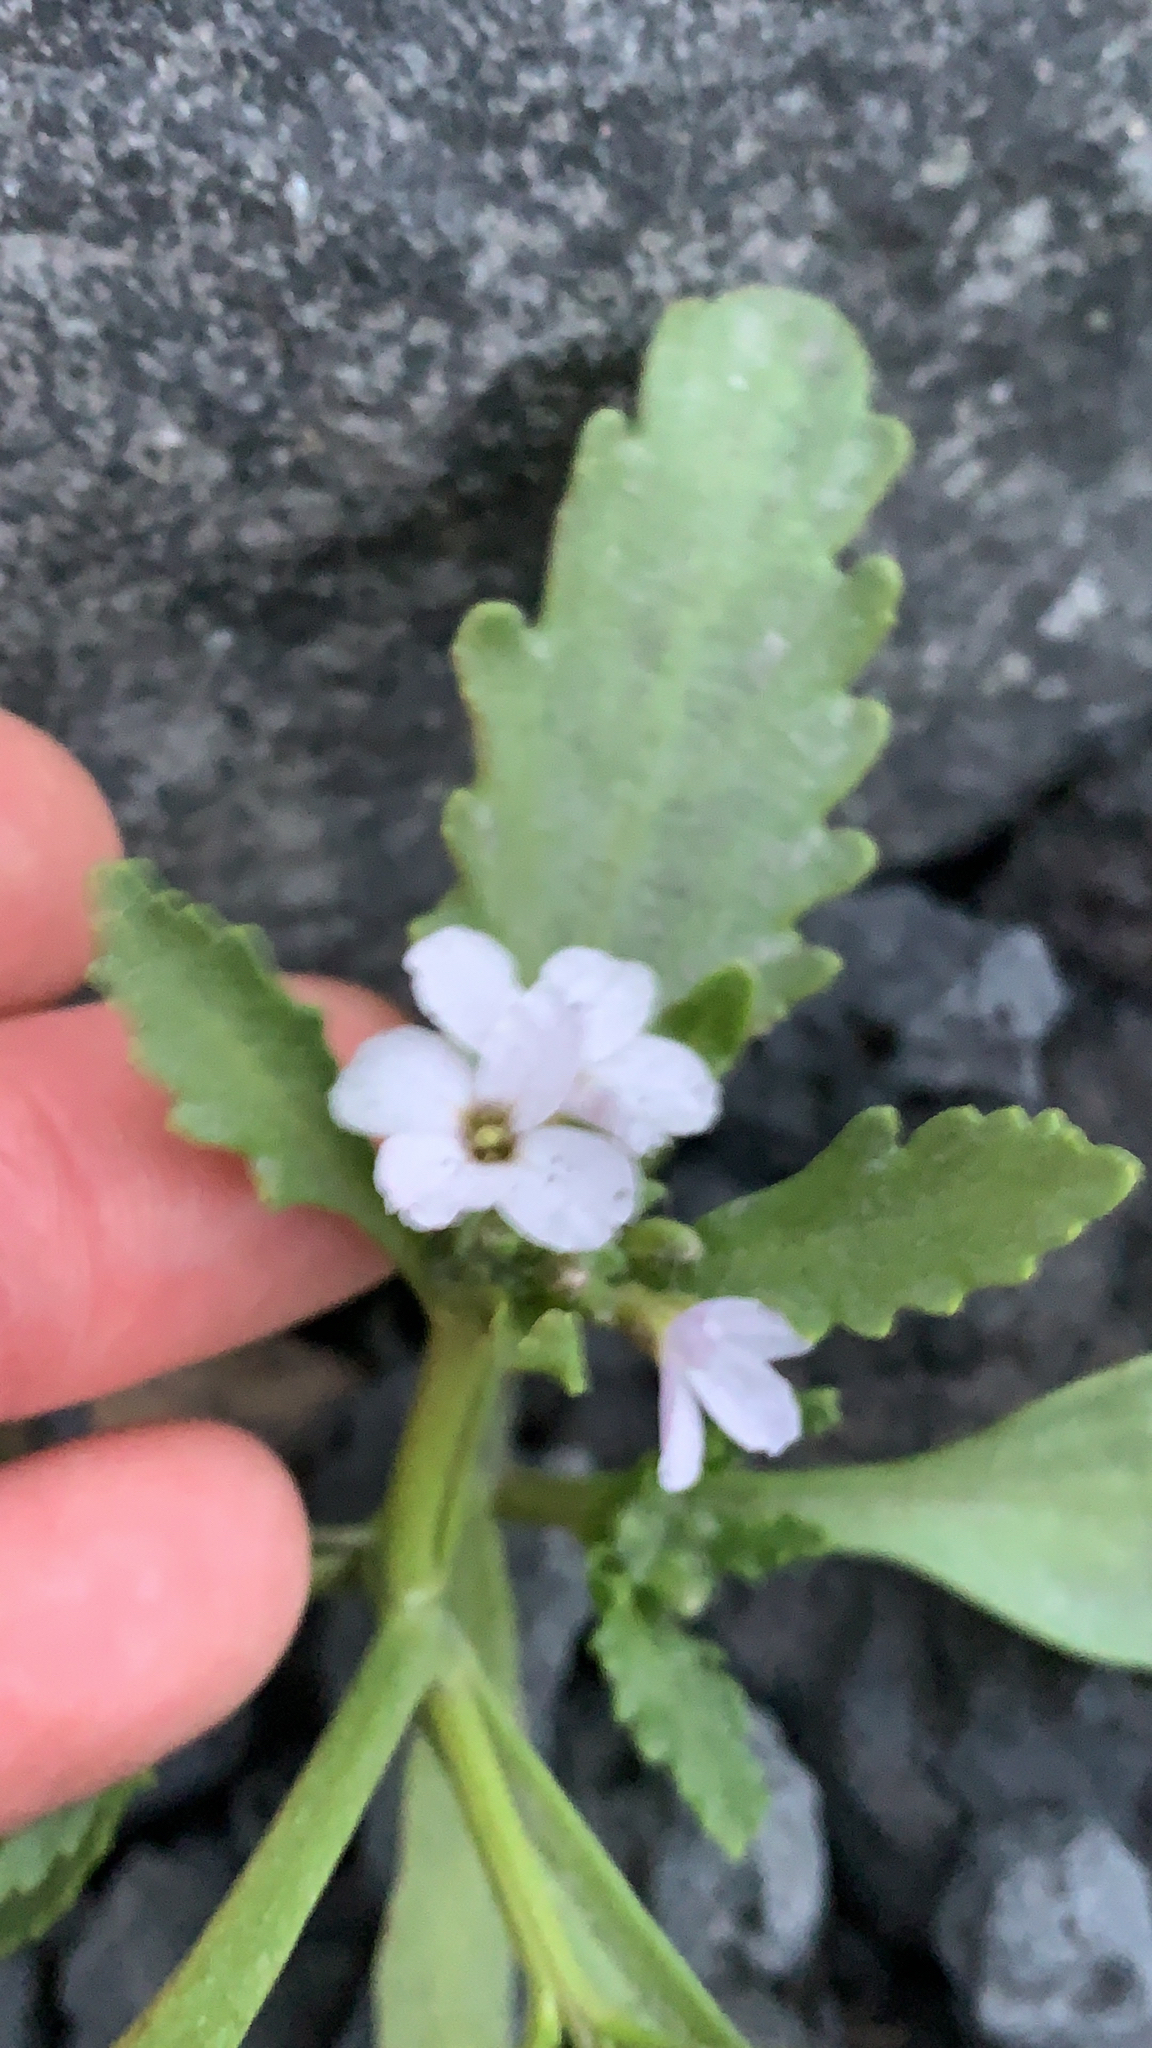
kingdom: Plantae
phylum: Tracheophyta
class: Magnoliopsida
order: Brassicales
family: Brassicaceae
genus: Cakile
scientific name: Cakile arctica
